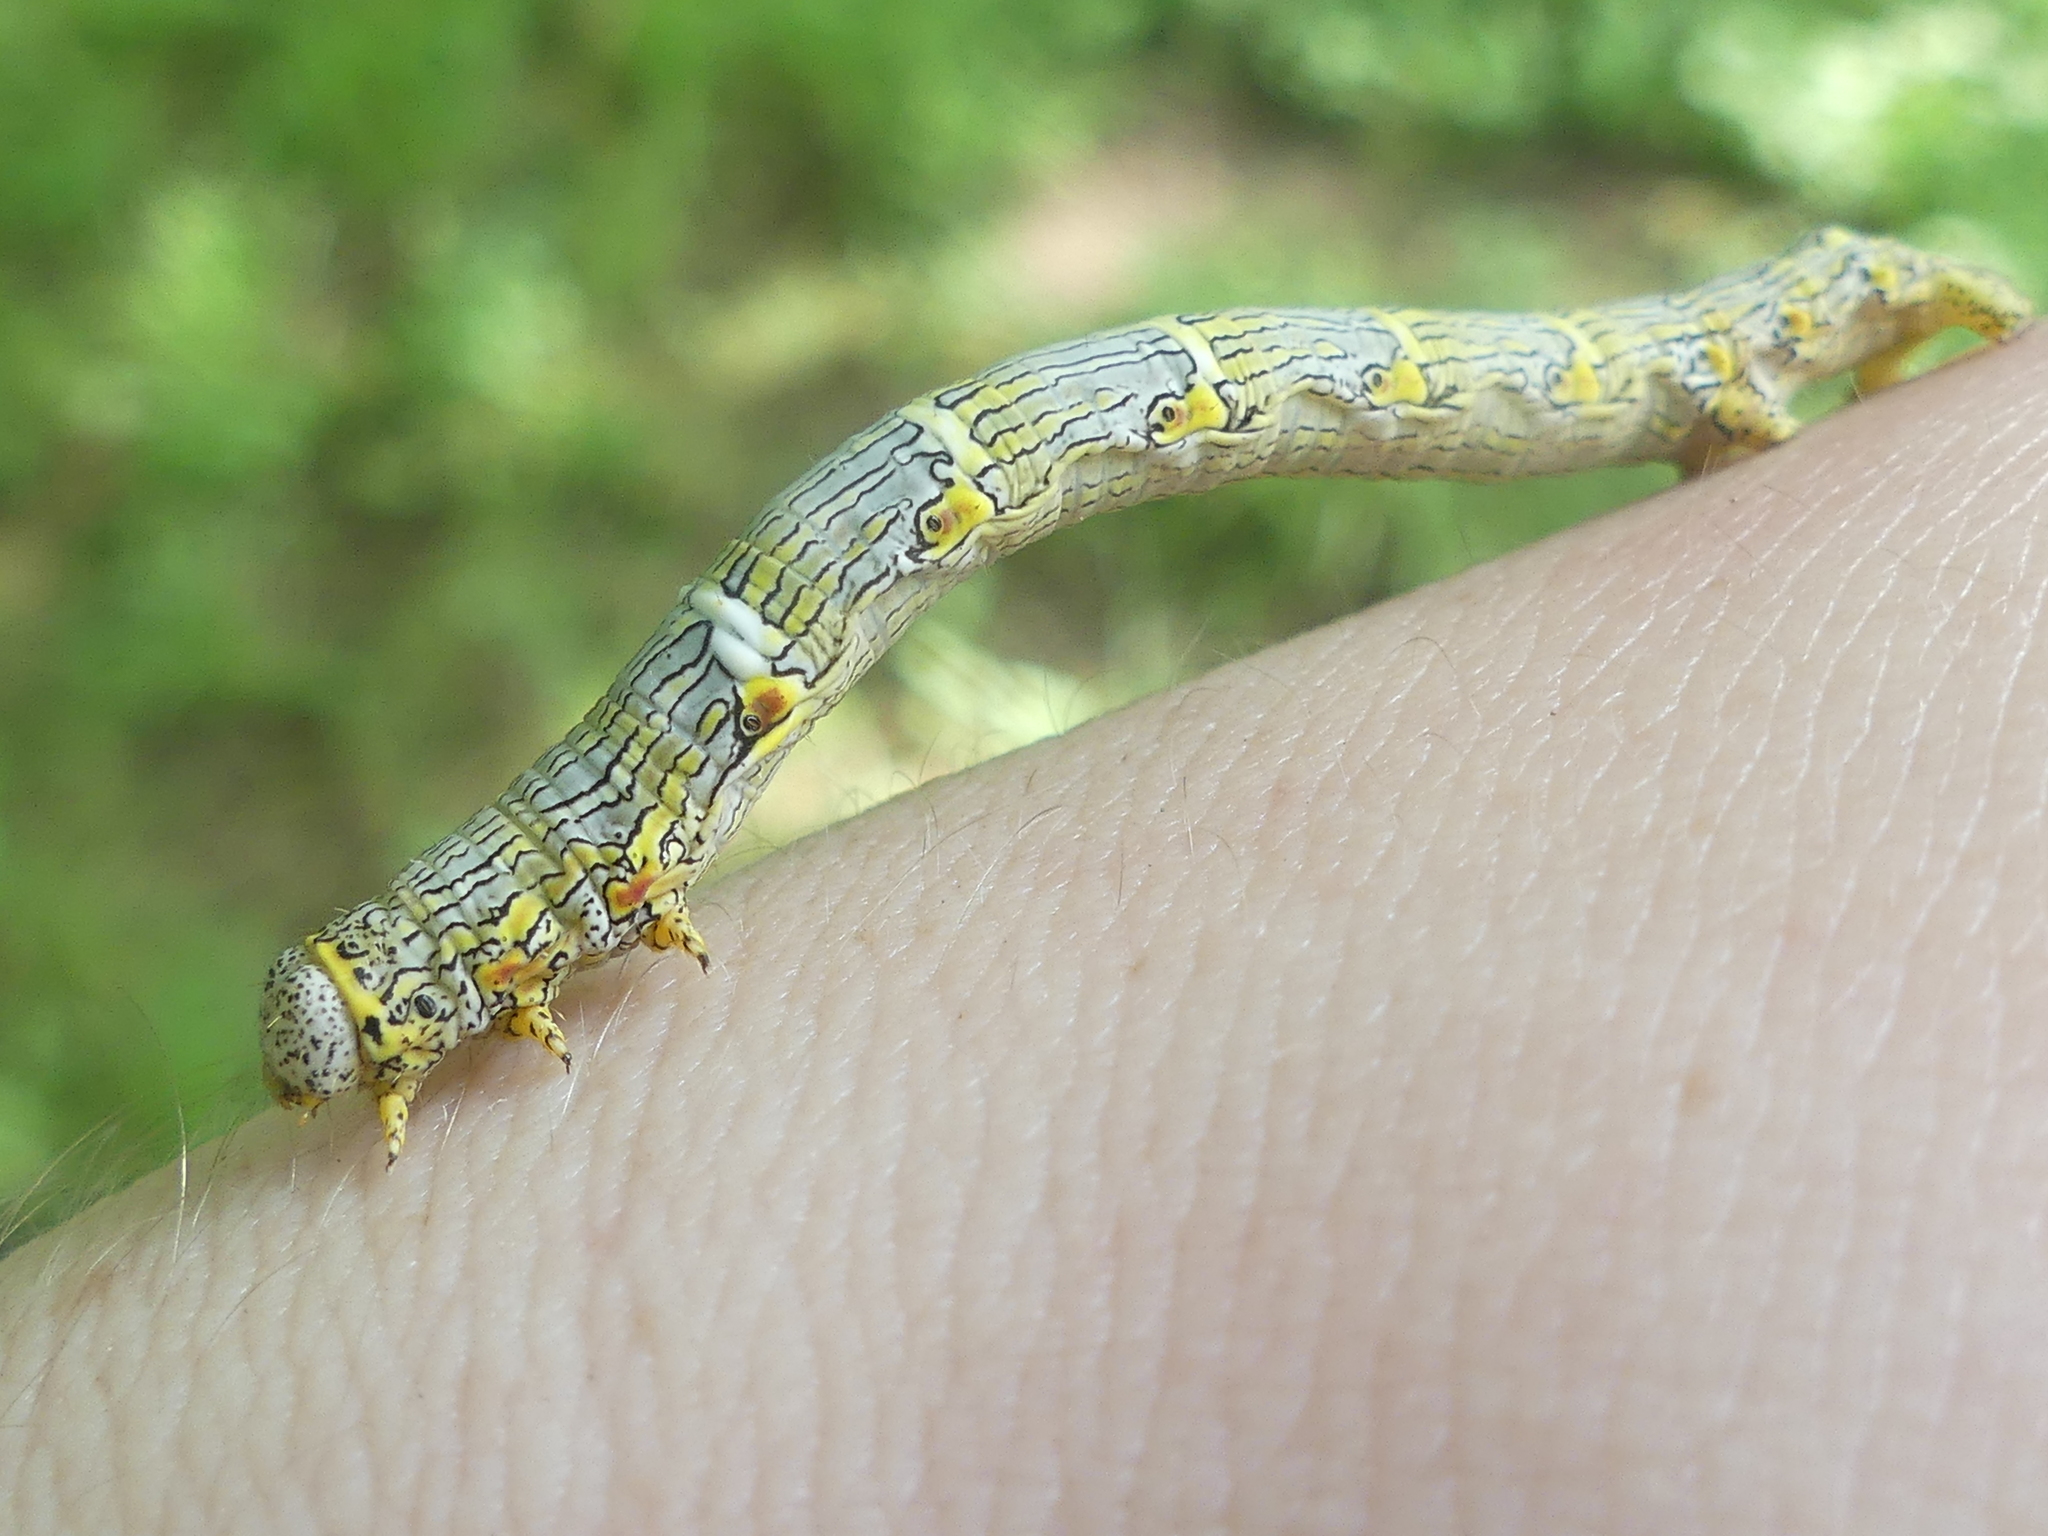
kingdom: Animalia
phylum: Arthropoda
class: Insecta
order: Lepidoptera
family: Geometridae
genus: Lycia
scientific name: Lycia ypsilon
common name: Wooly gray
